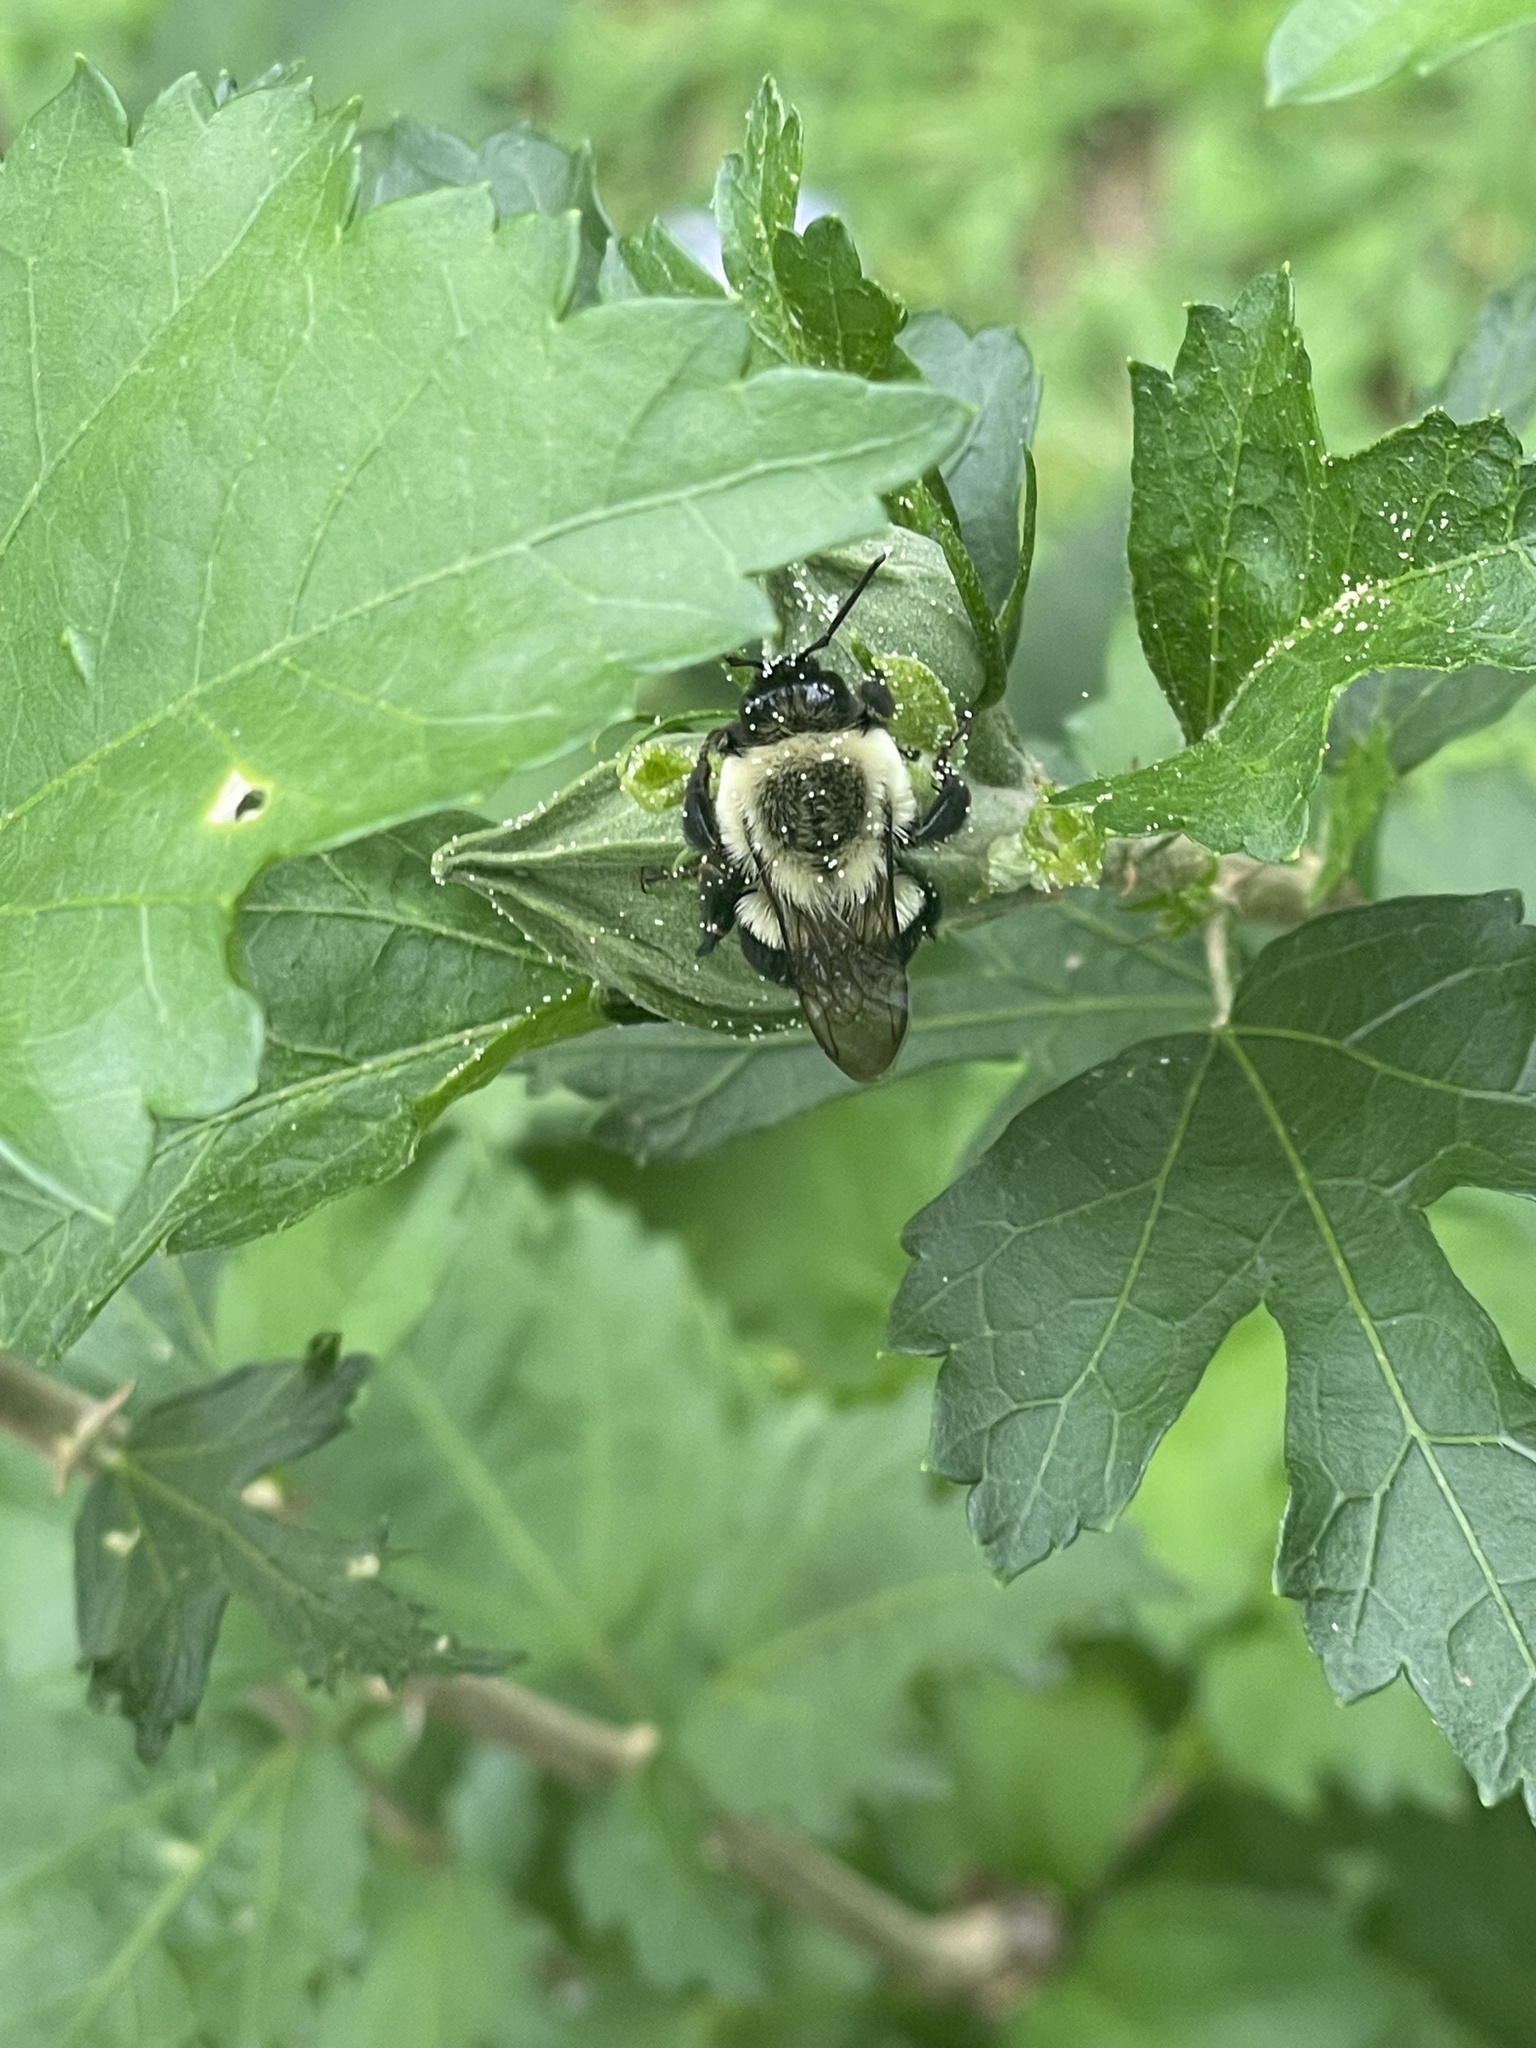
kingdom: Animalia
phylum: Arthropoda
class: Insecta
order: Hymenoptera
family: Apidae
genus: Bombus
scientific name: Bombus impatiens
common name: Common eastern bumble bee
